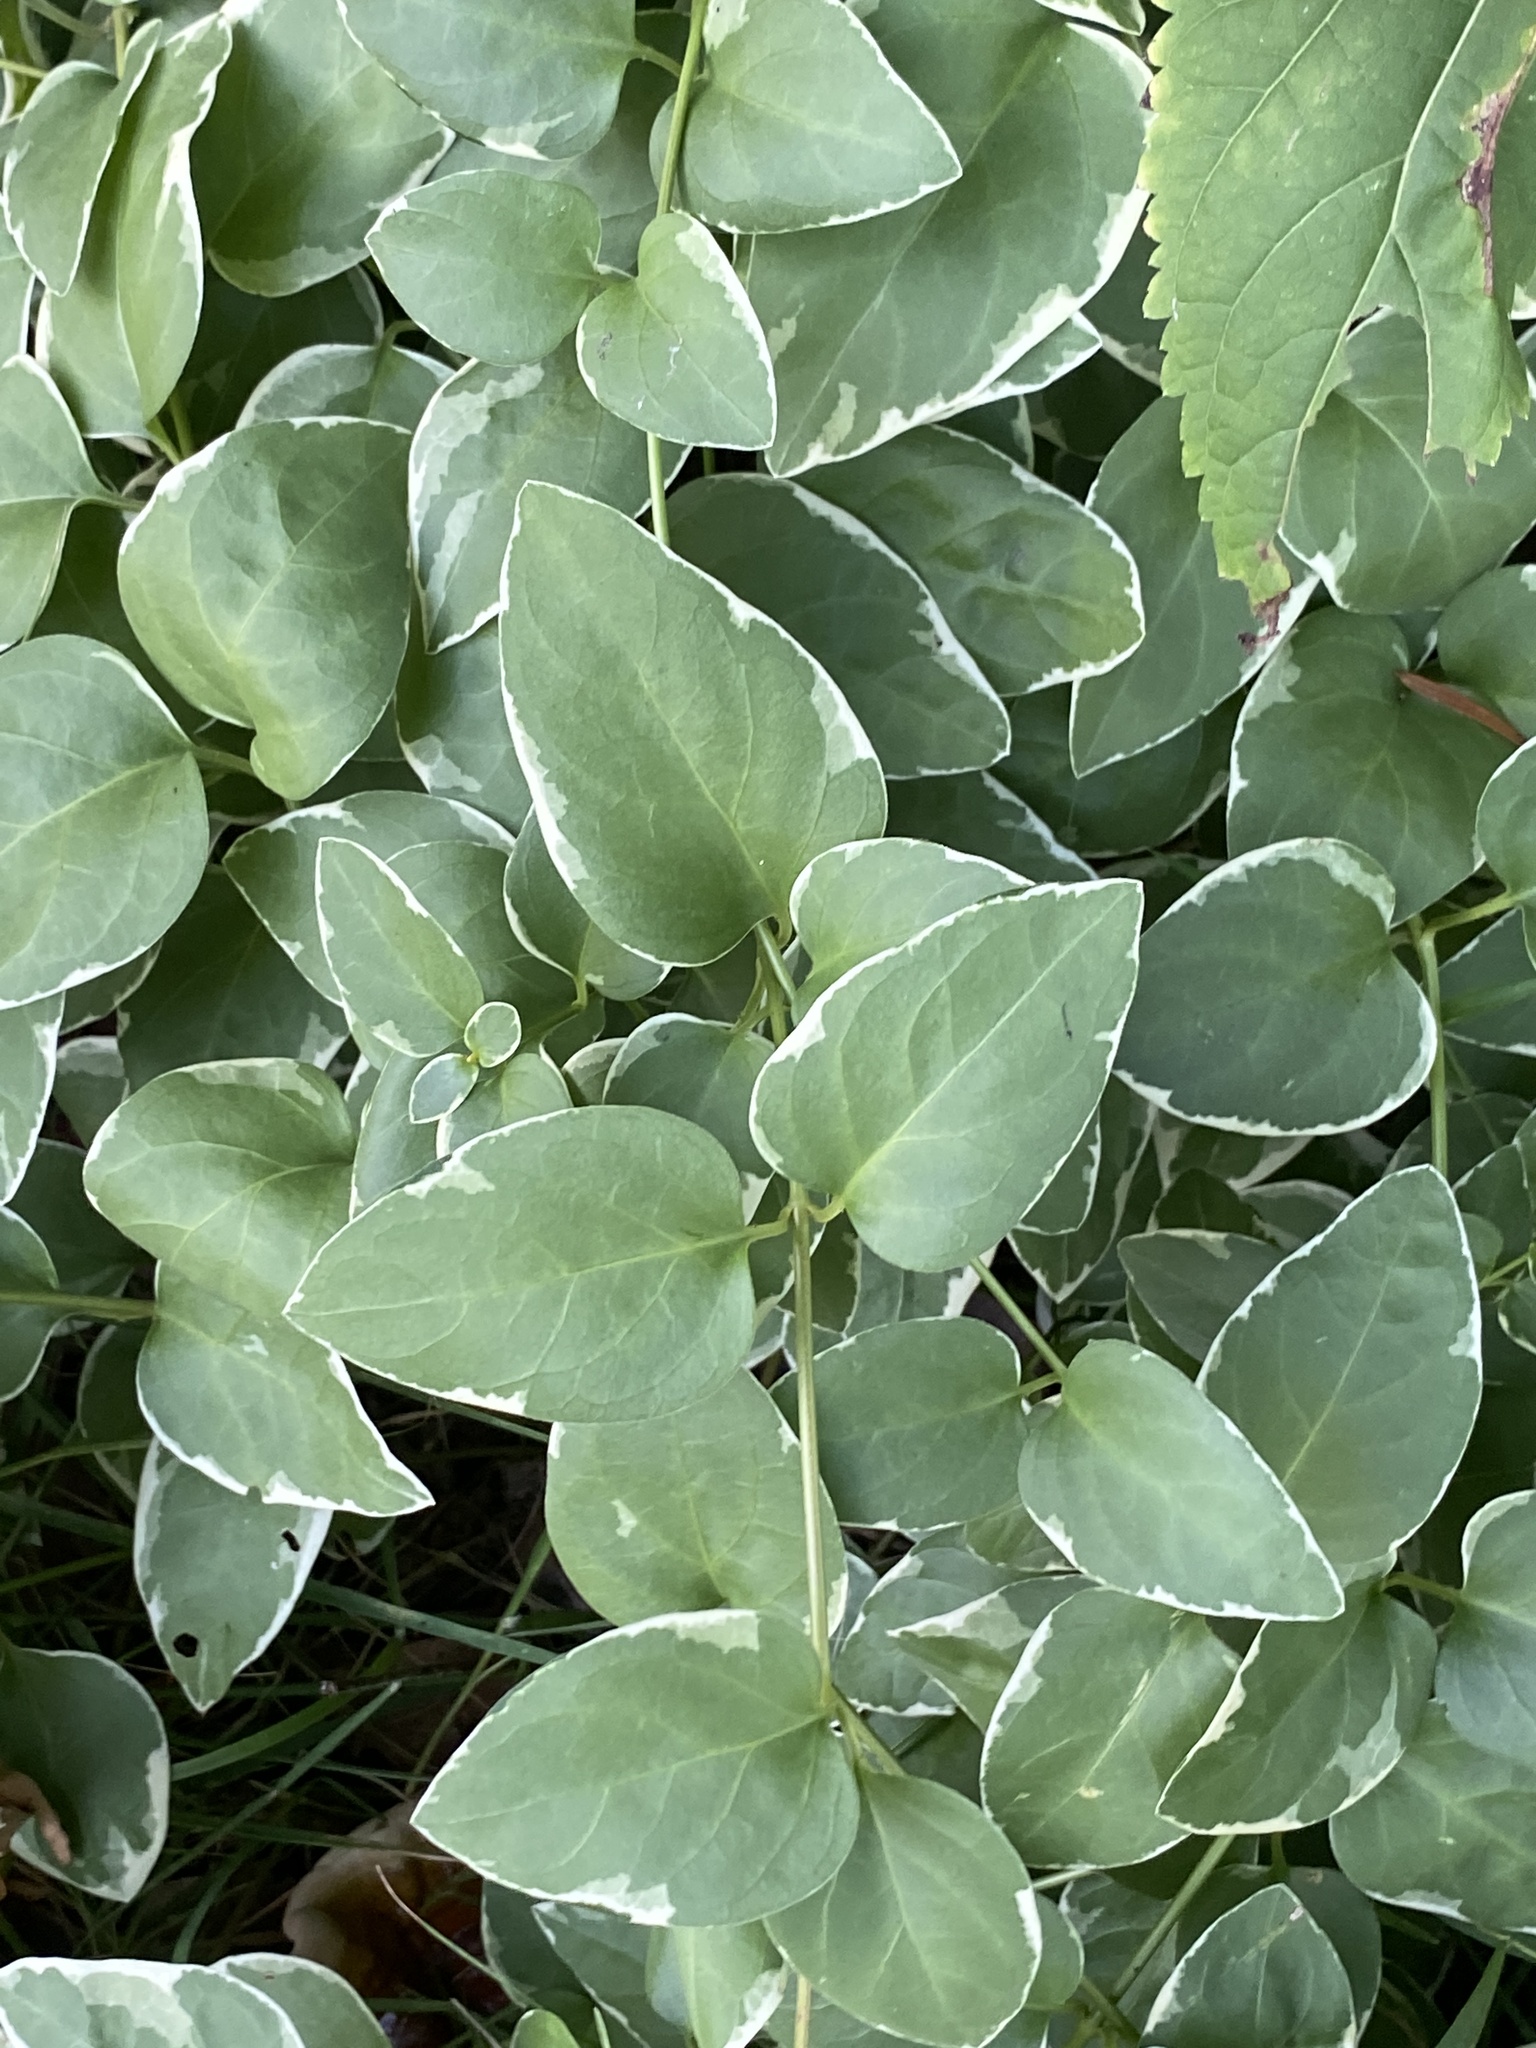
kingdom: Plantae
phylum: Tracheophyta
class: Magnoliopsida
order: Gentianales
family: Apocynaceae
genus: Vinca
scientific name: Vinca major
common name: Greater periwinkle
